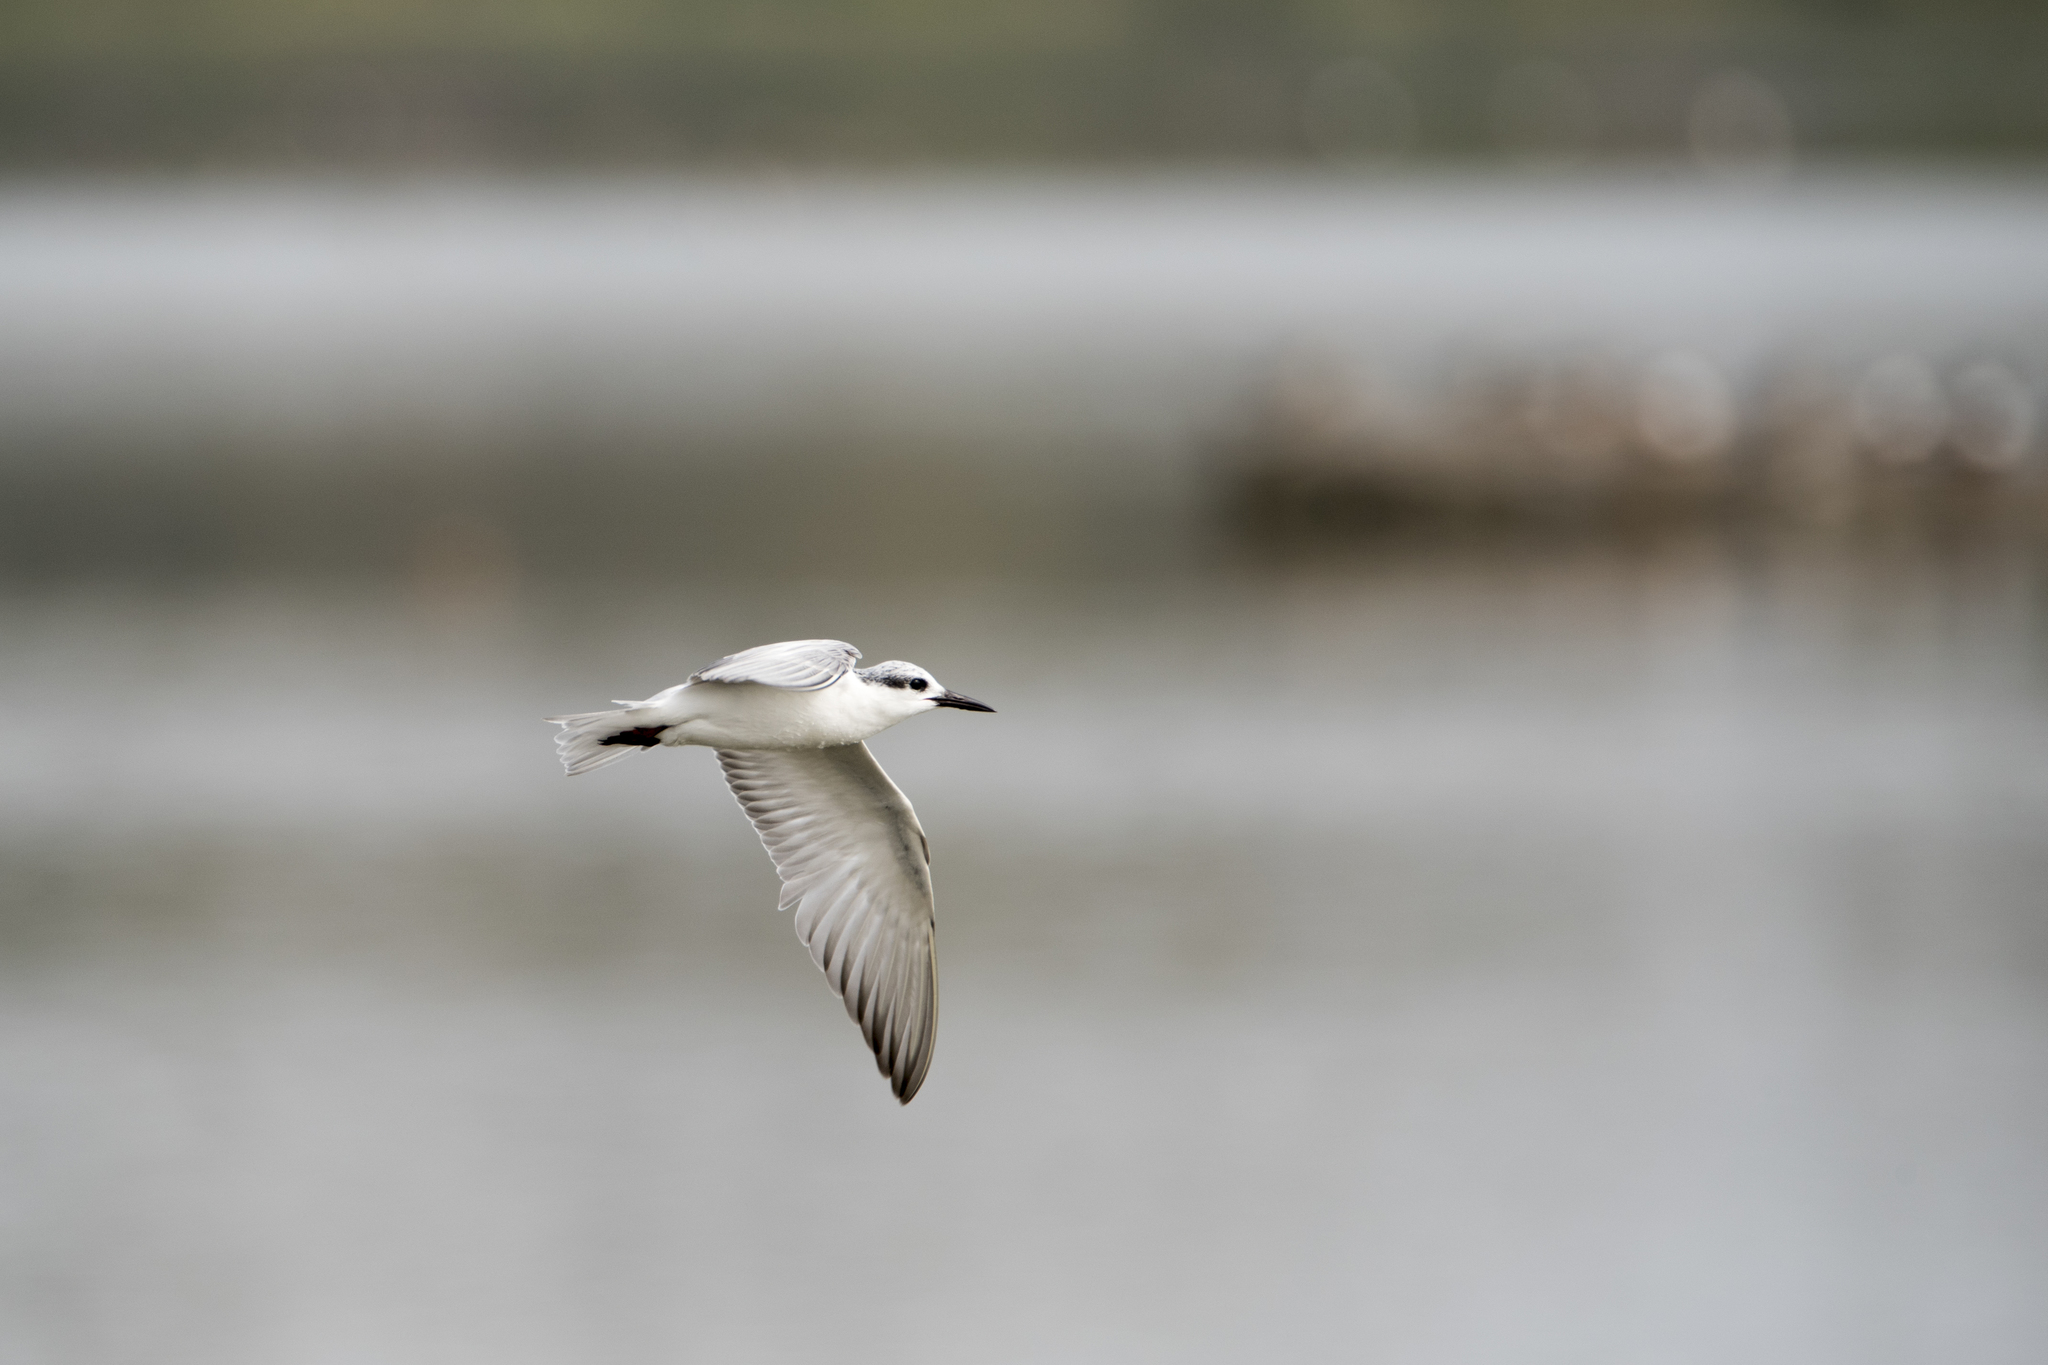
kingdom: Animalia
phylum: Chordata
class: Aves
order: Charadriiformes
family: Laridae
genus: Chlidonias
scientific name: Chlidonias hybrida
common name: Whiskered tern
